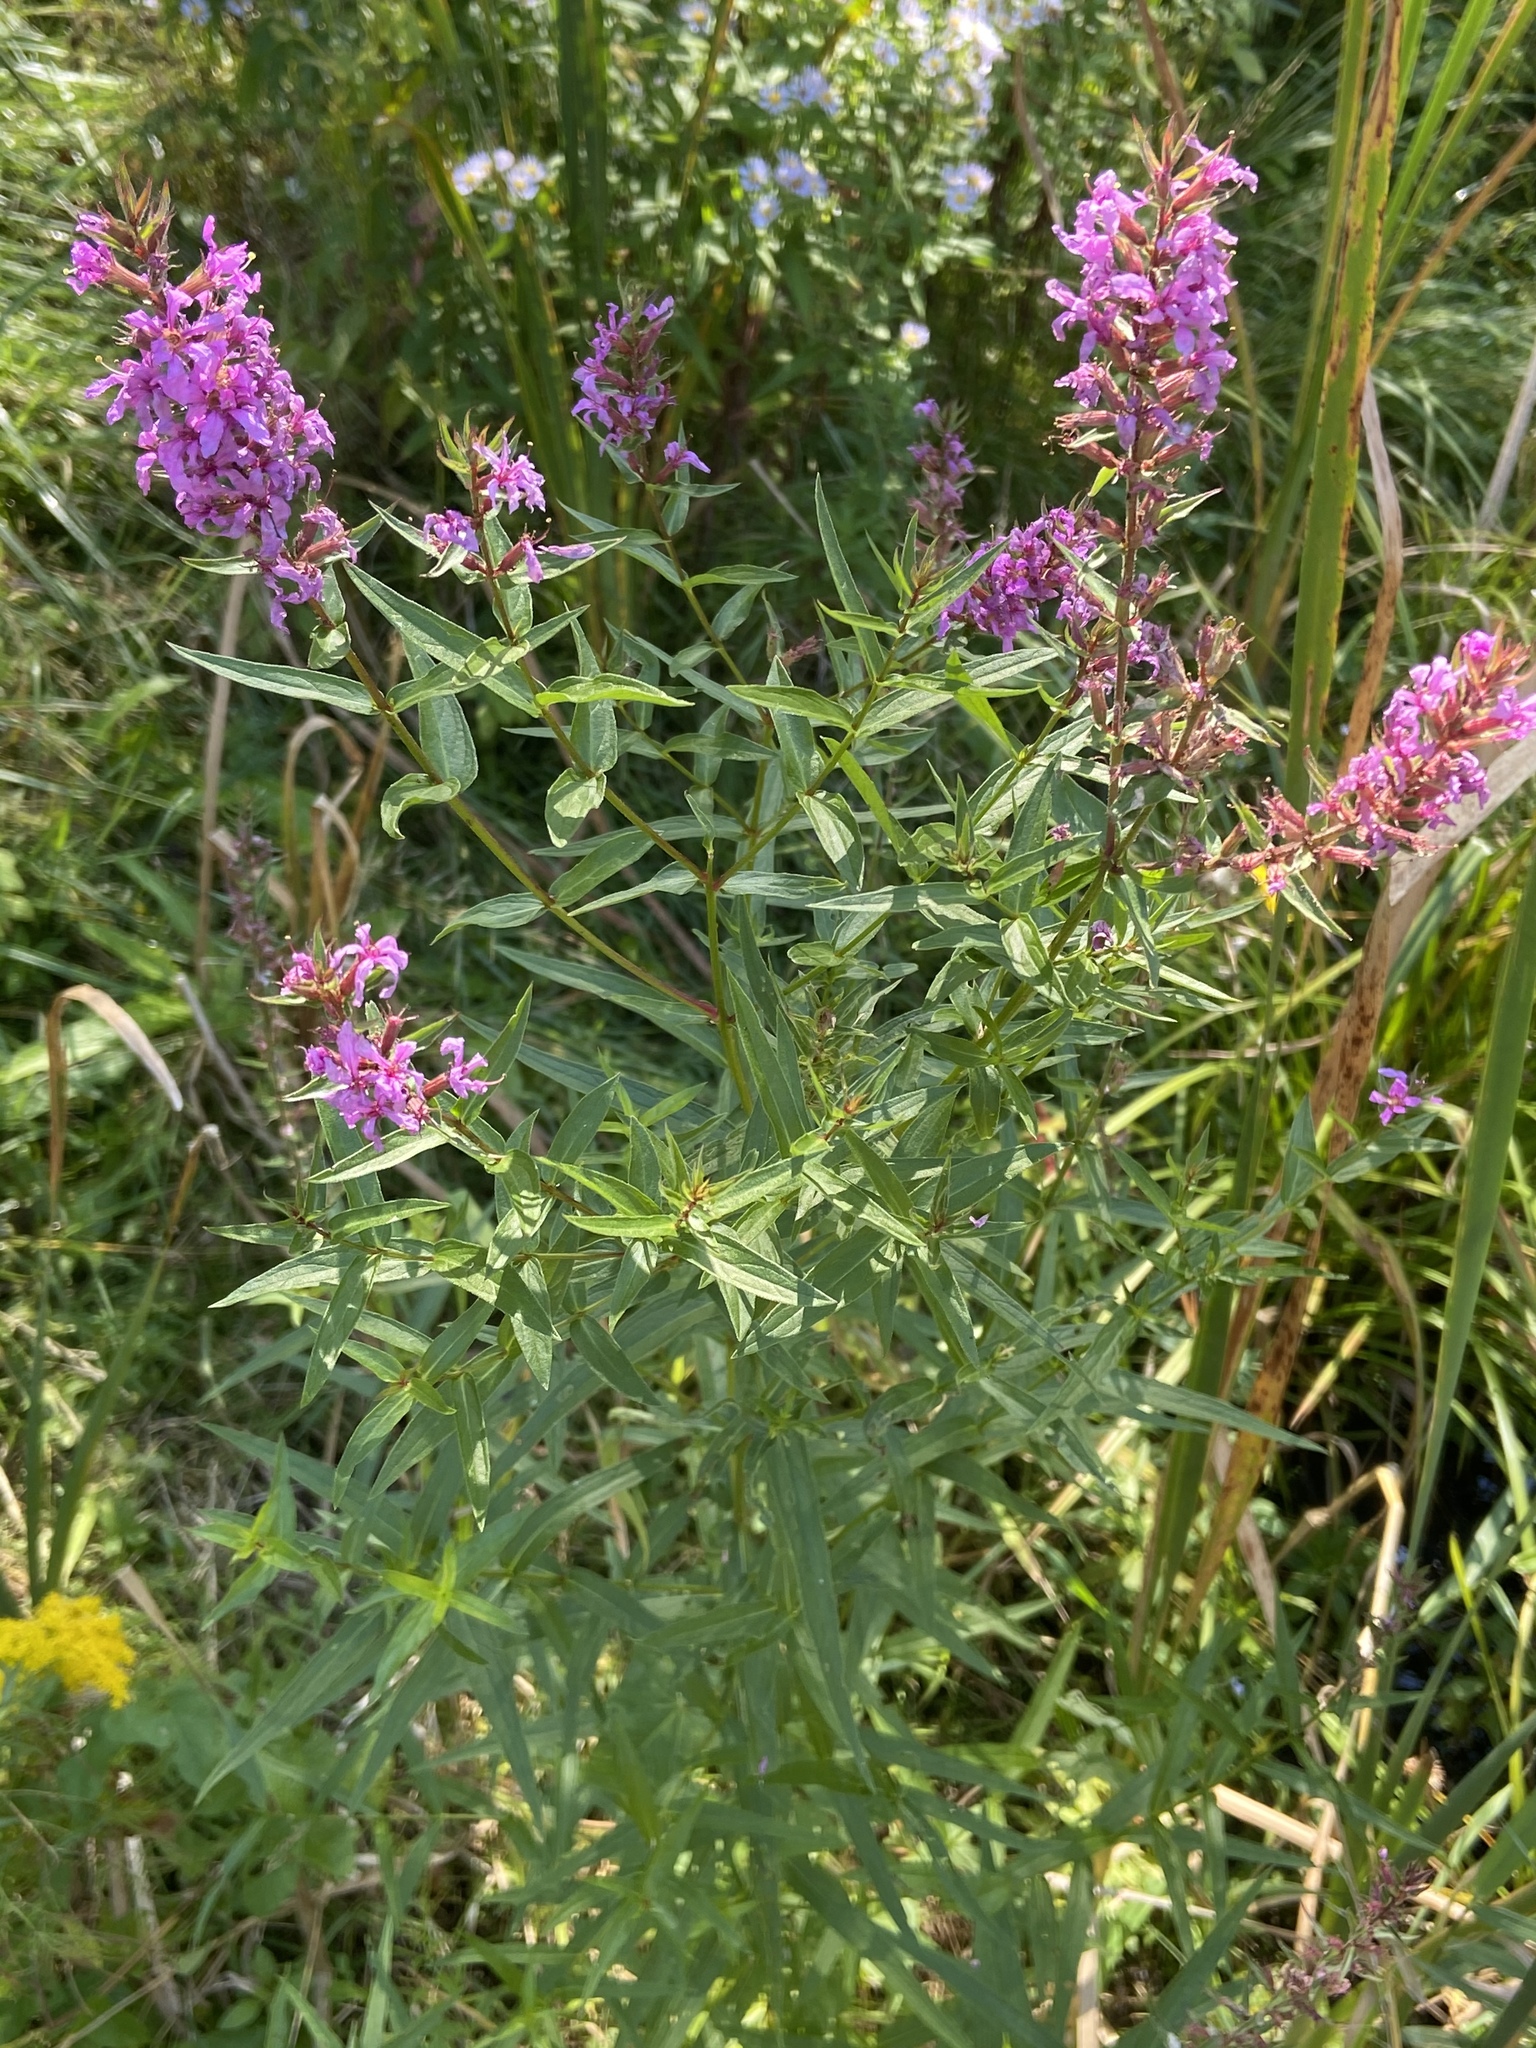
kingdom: Plantae
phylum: Tracheophyta
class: Magnoliopsida
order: Myrtales
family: Lythraceae
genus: Lythrum
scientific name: Lythrum salicaria
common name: Purple loosestrife
